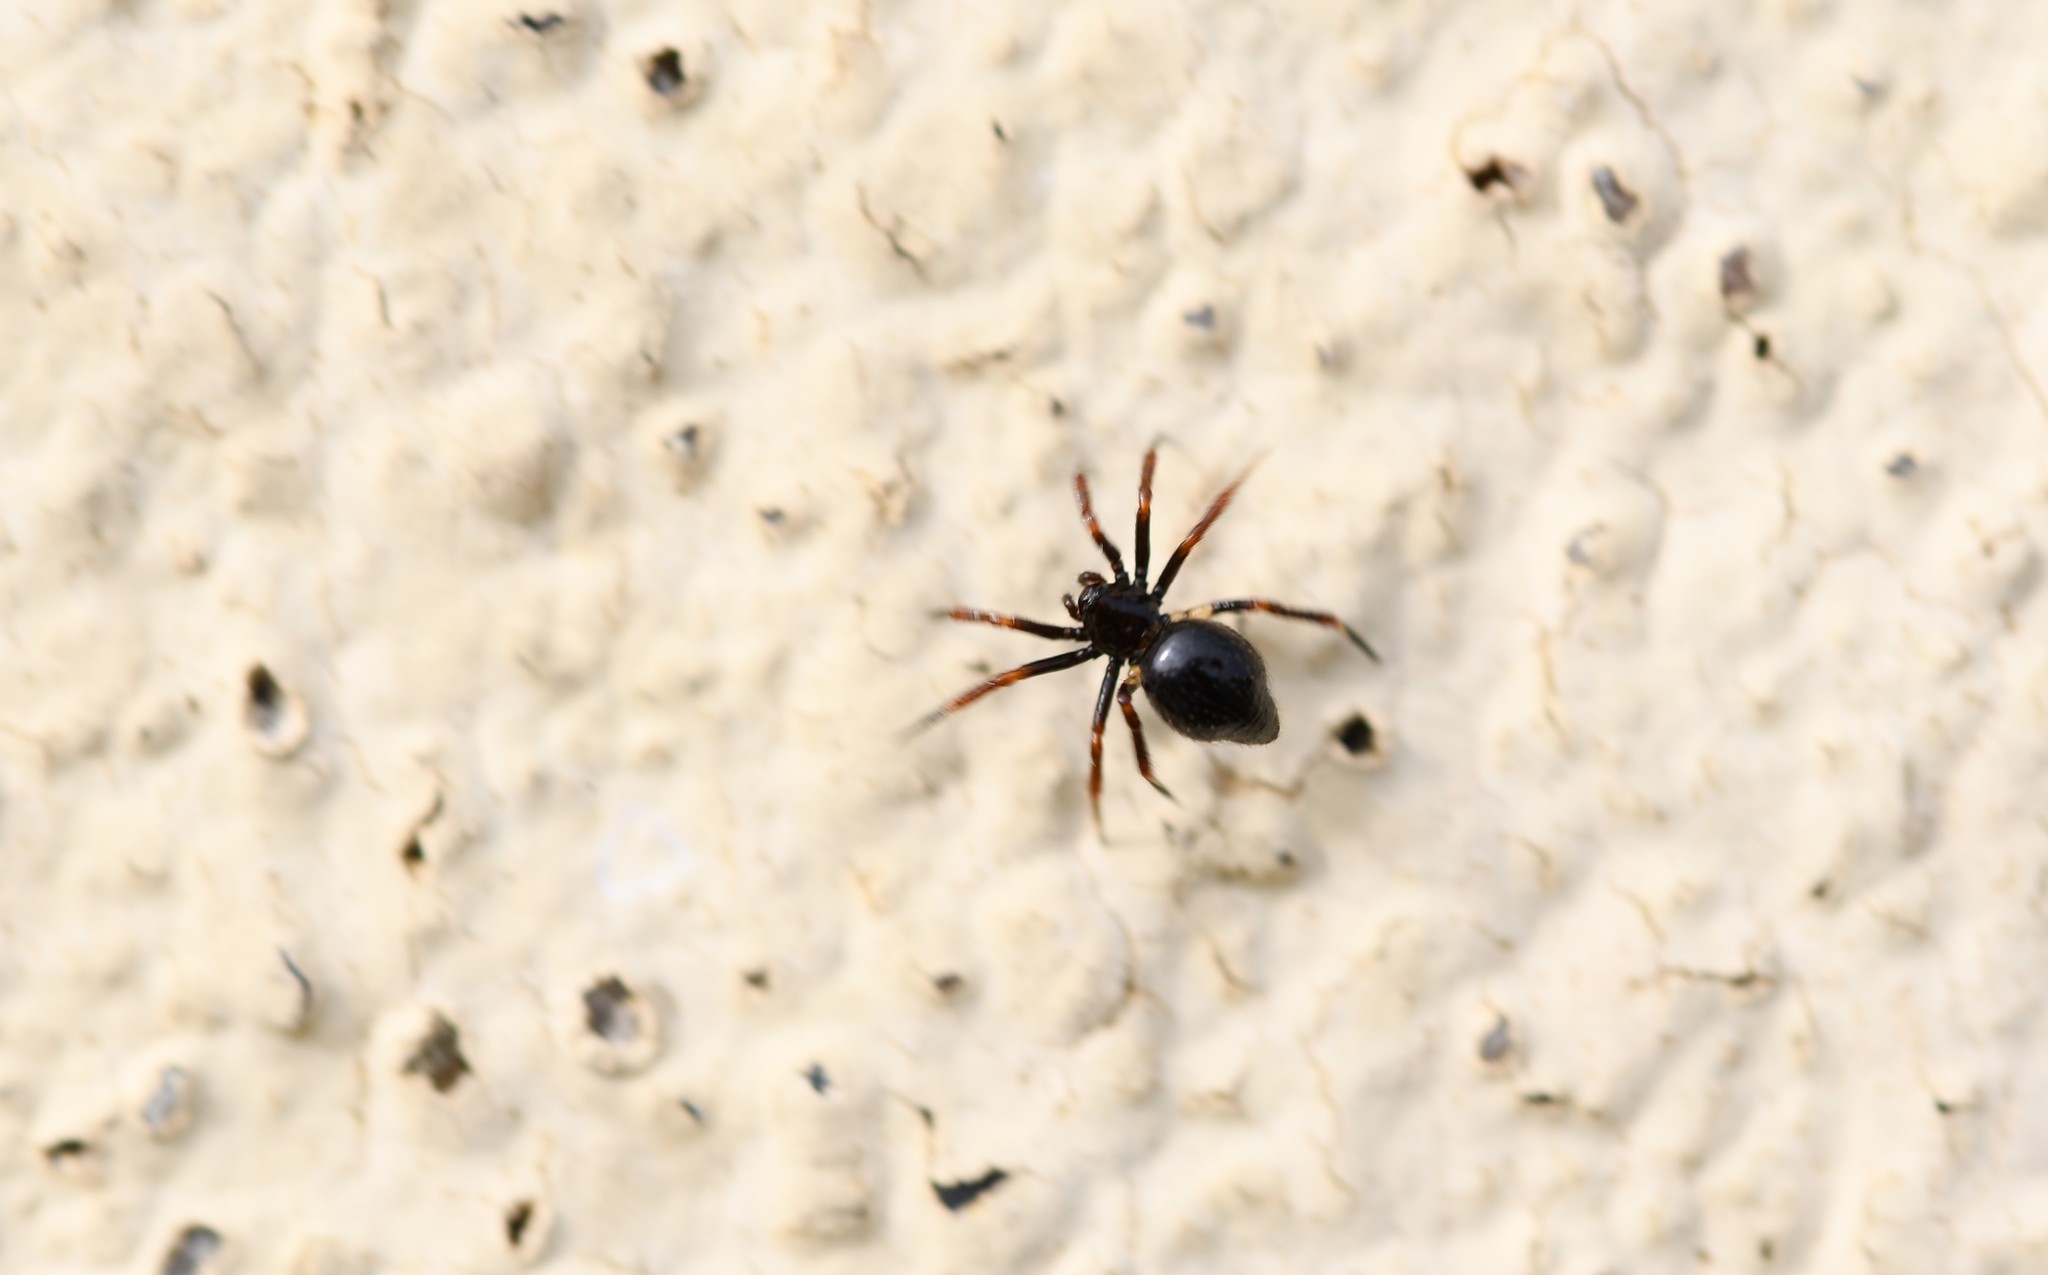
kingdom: Animalia
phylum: Arthropoda
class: Arachnida
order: Araneae
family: Theridiidae
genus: Euryopis
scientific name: Euryopis episinoides
